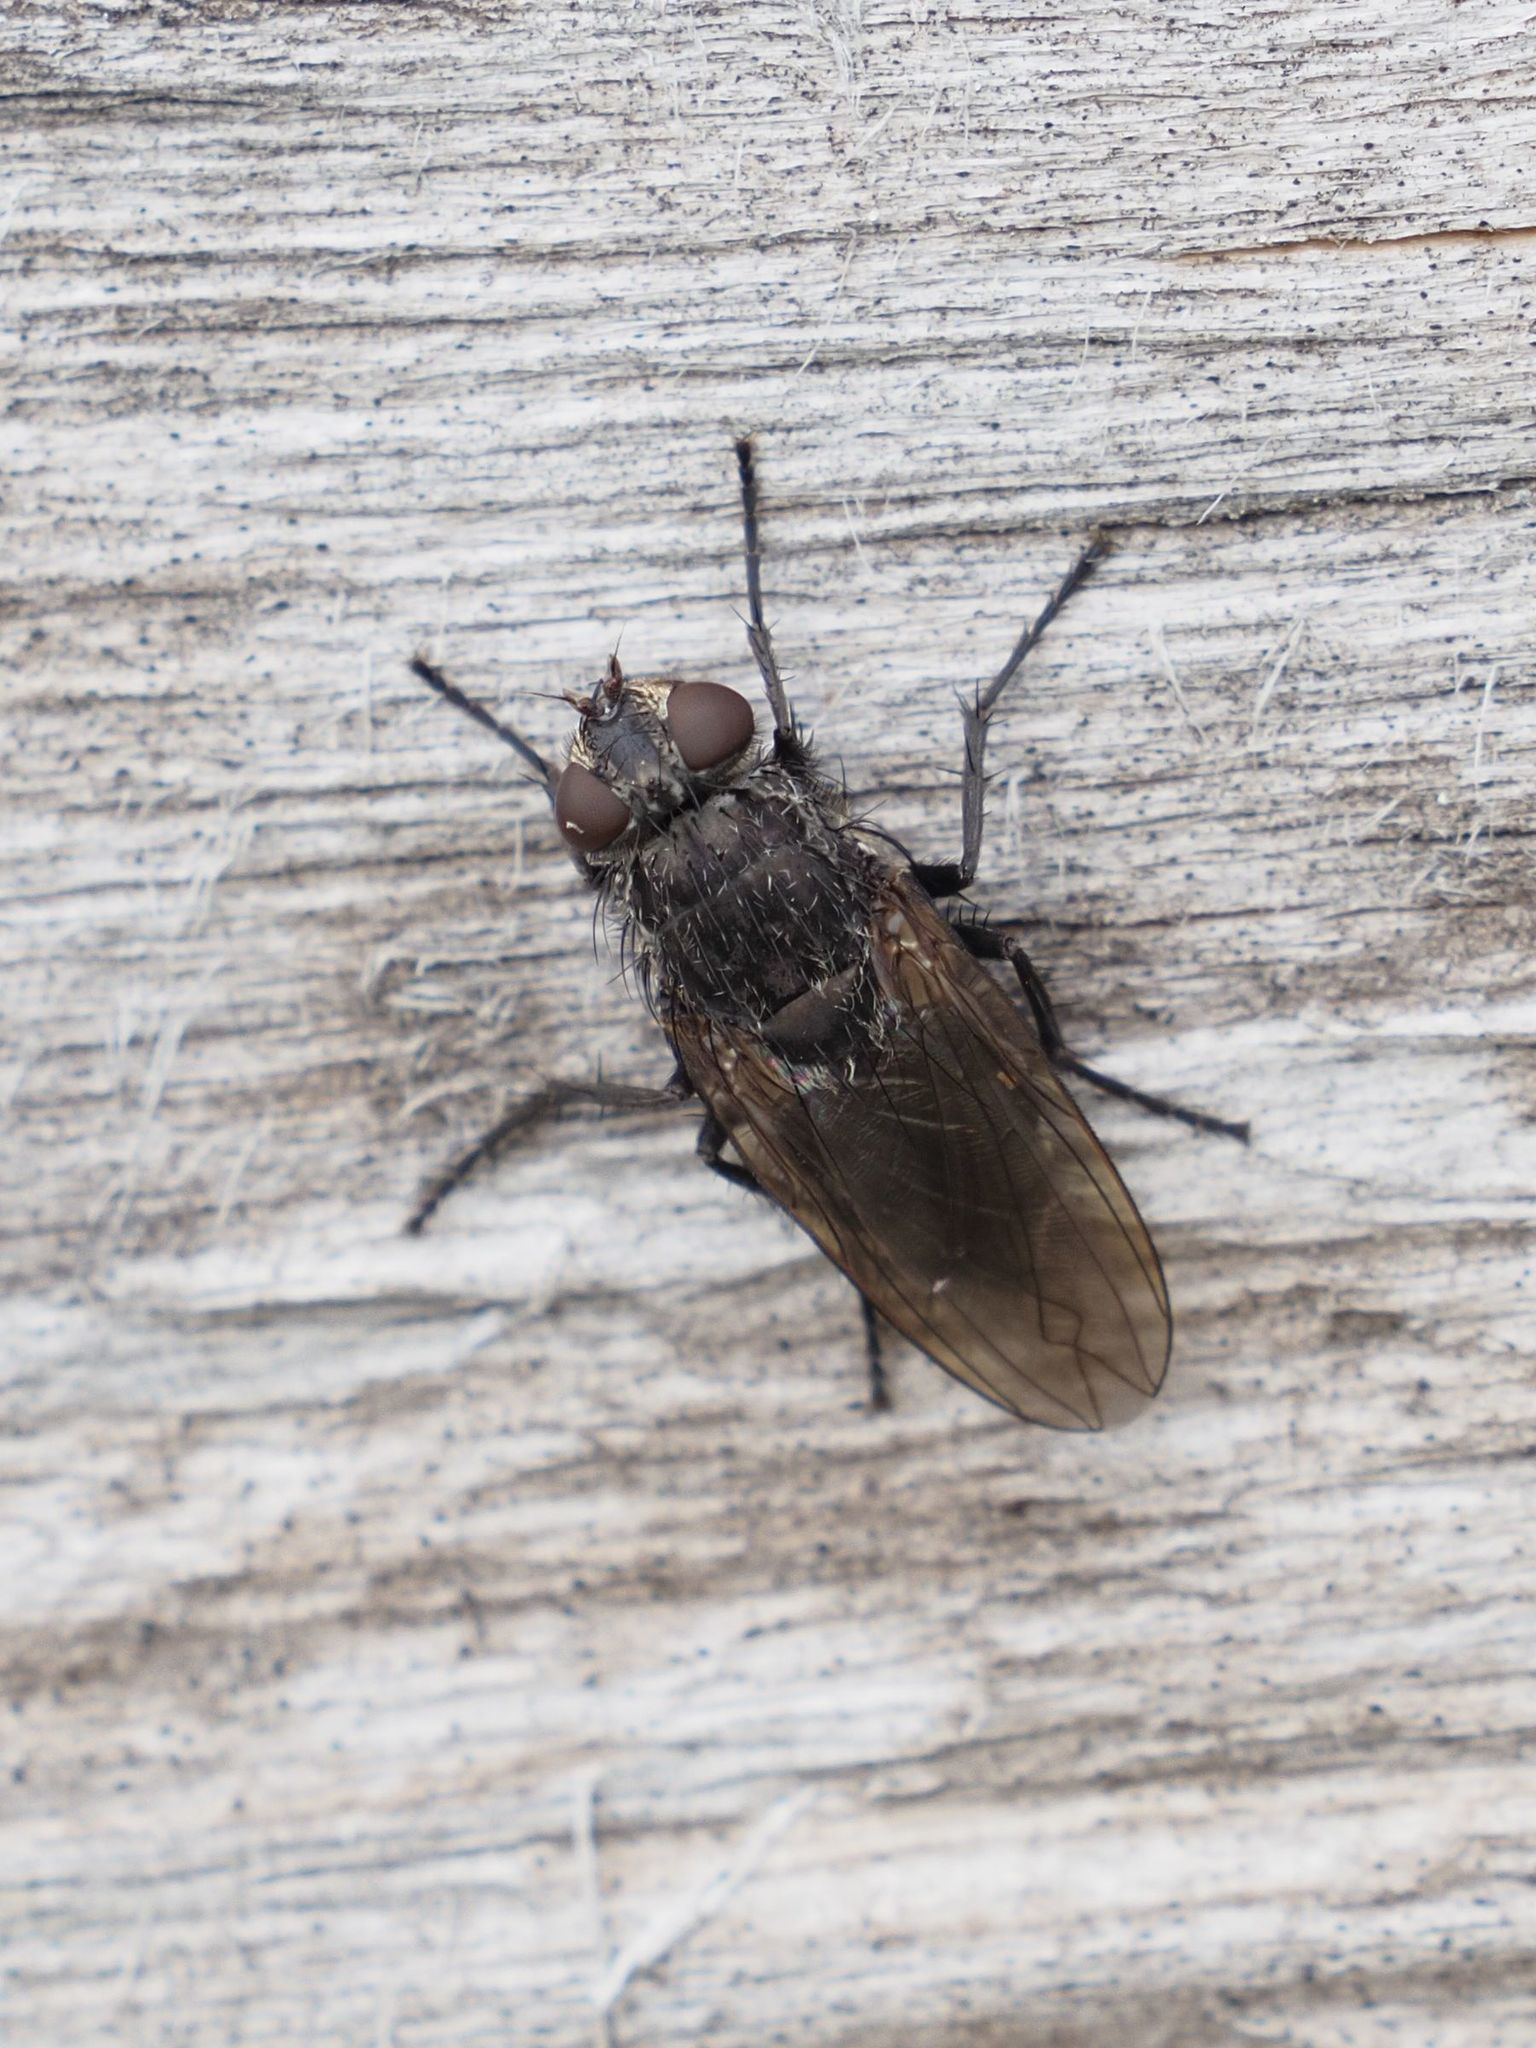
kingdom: Animalia
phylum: Arthropoda
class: Insecta
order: Diptera
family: Polleniidae
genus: Pollenia
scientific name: Pollenia vagabunda
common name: Vagabund cluster fly
